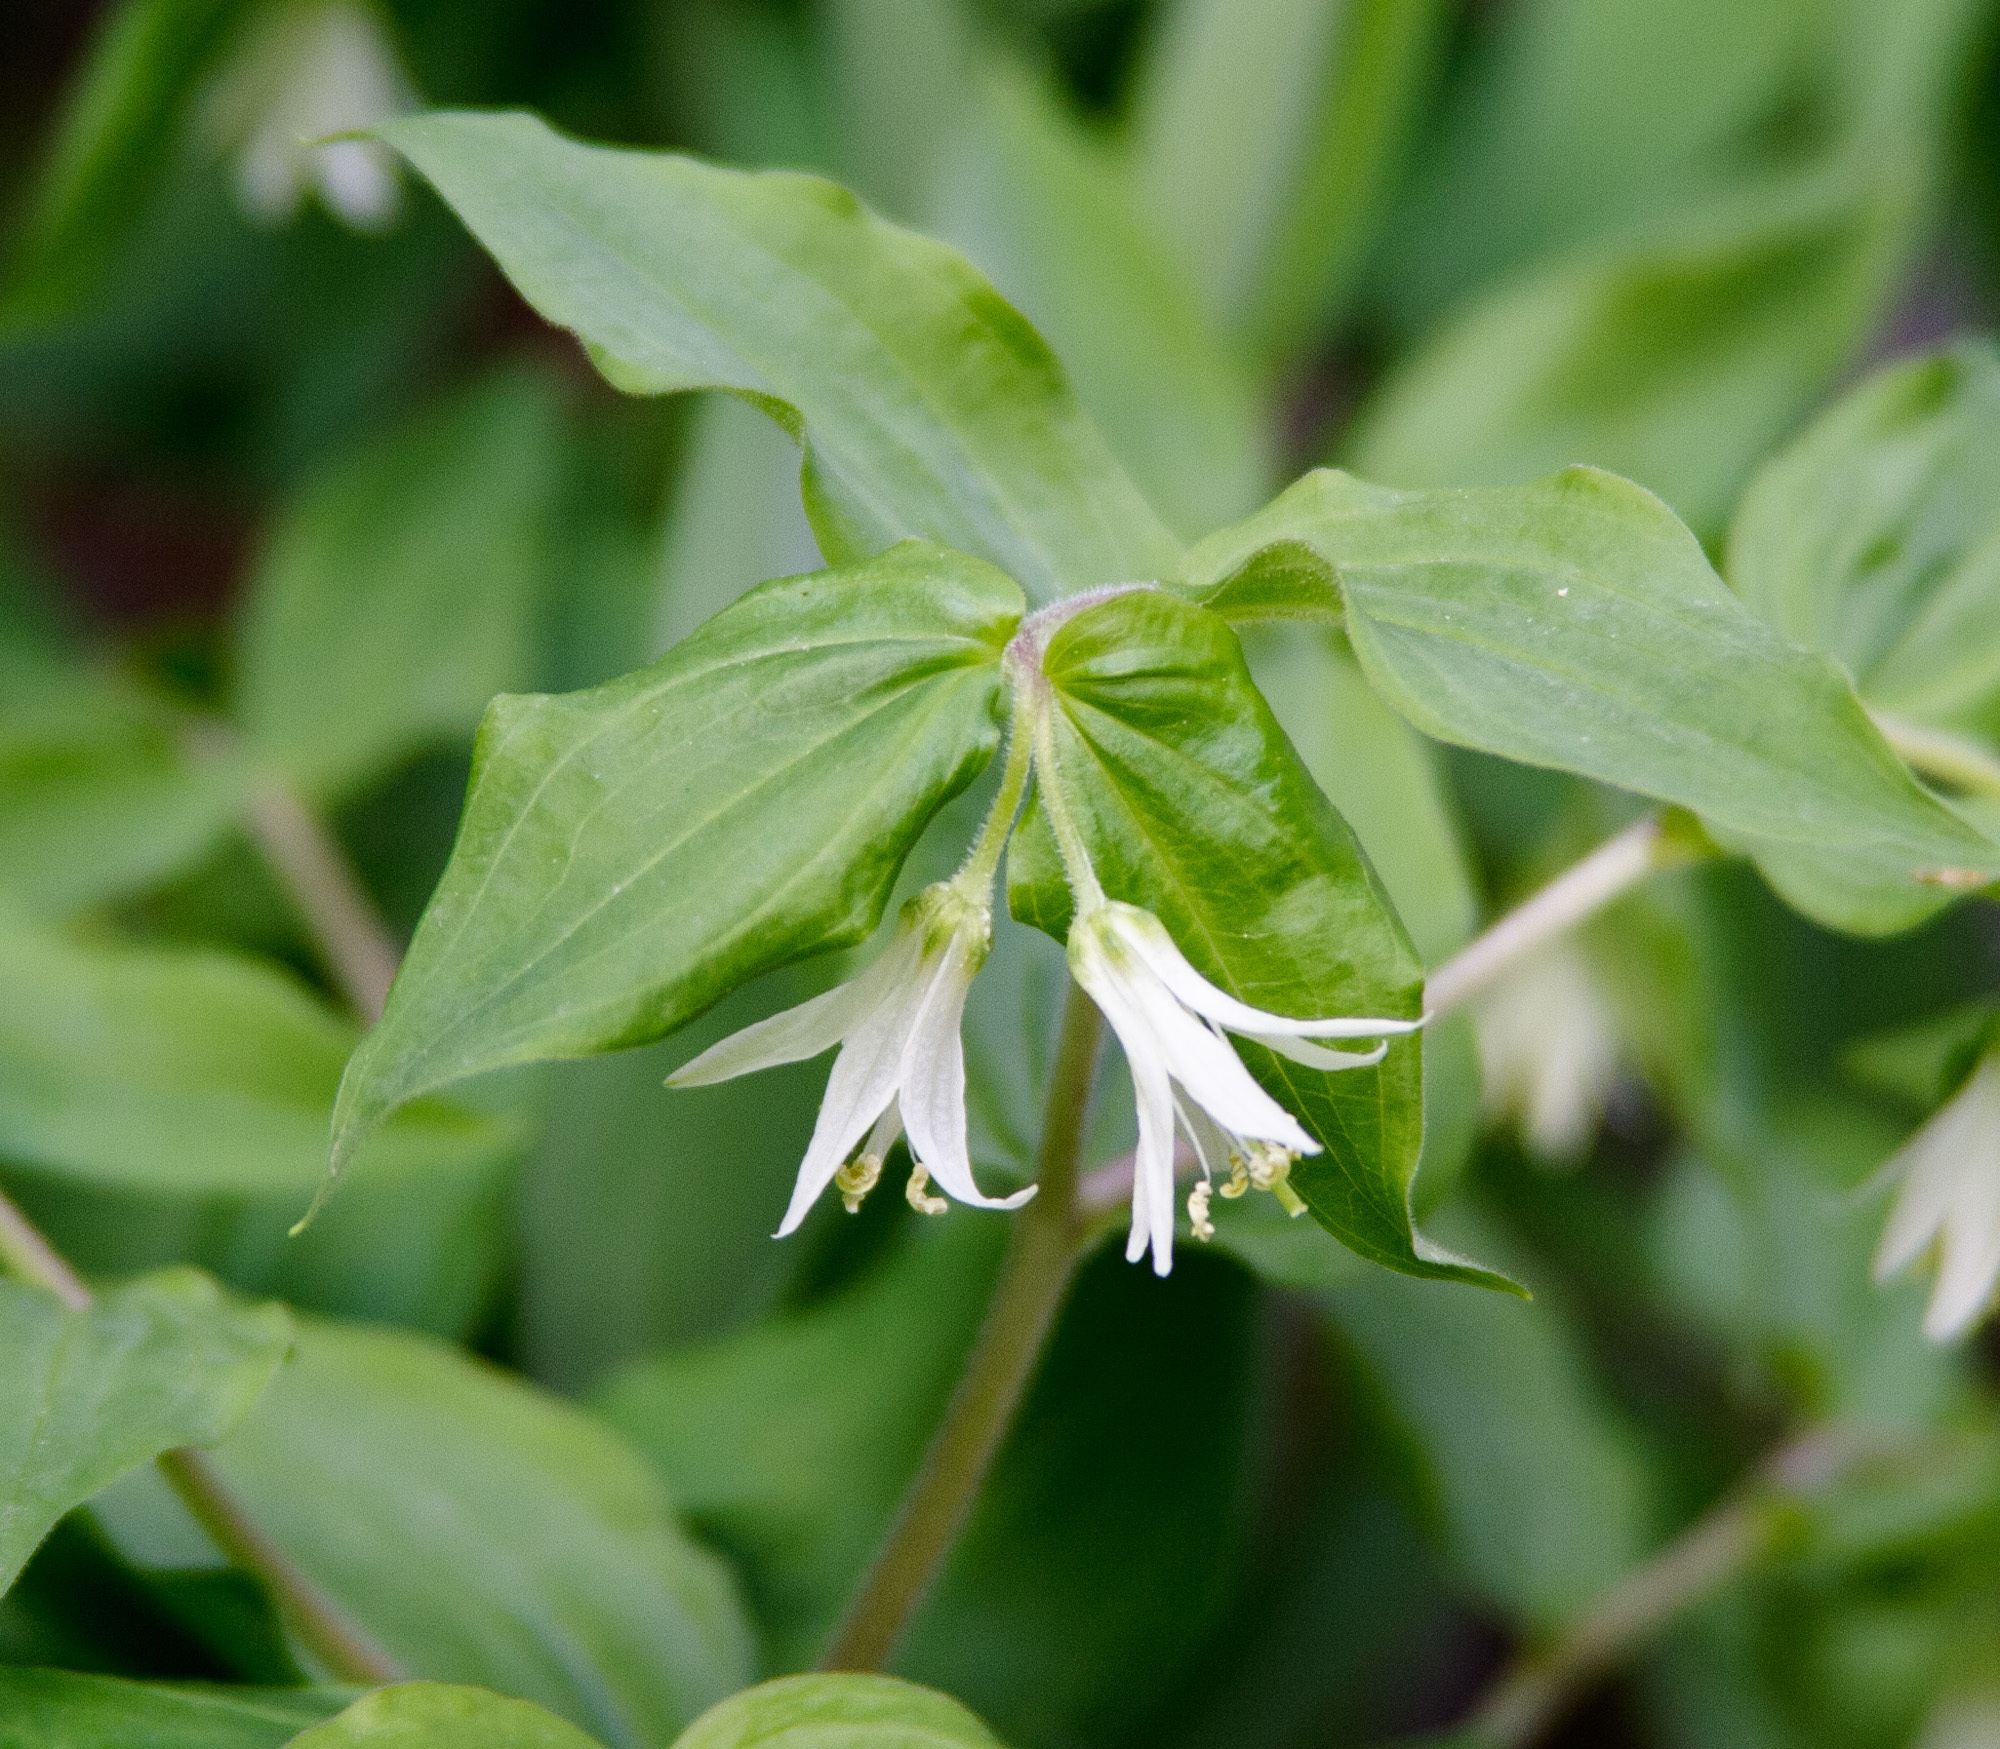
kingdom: Plantae
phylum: Tracheophyta
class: Liliopsida
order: Liliales
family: Liliaceae
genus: Prosartes
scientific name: Prosartes trachycarpa
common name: Rough-fruit fairy-bells
